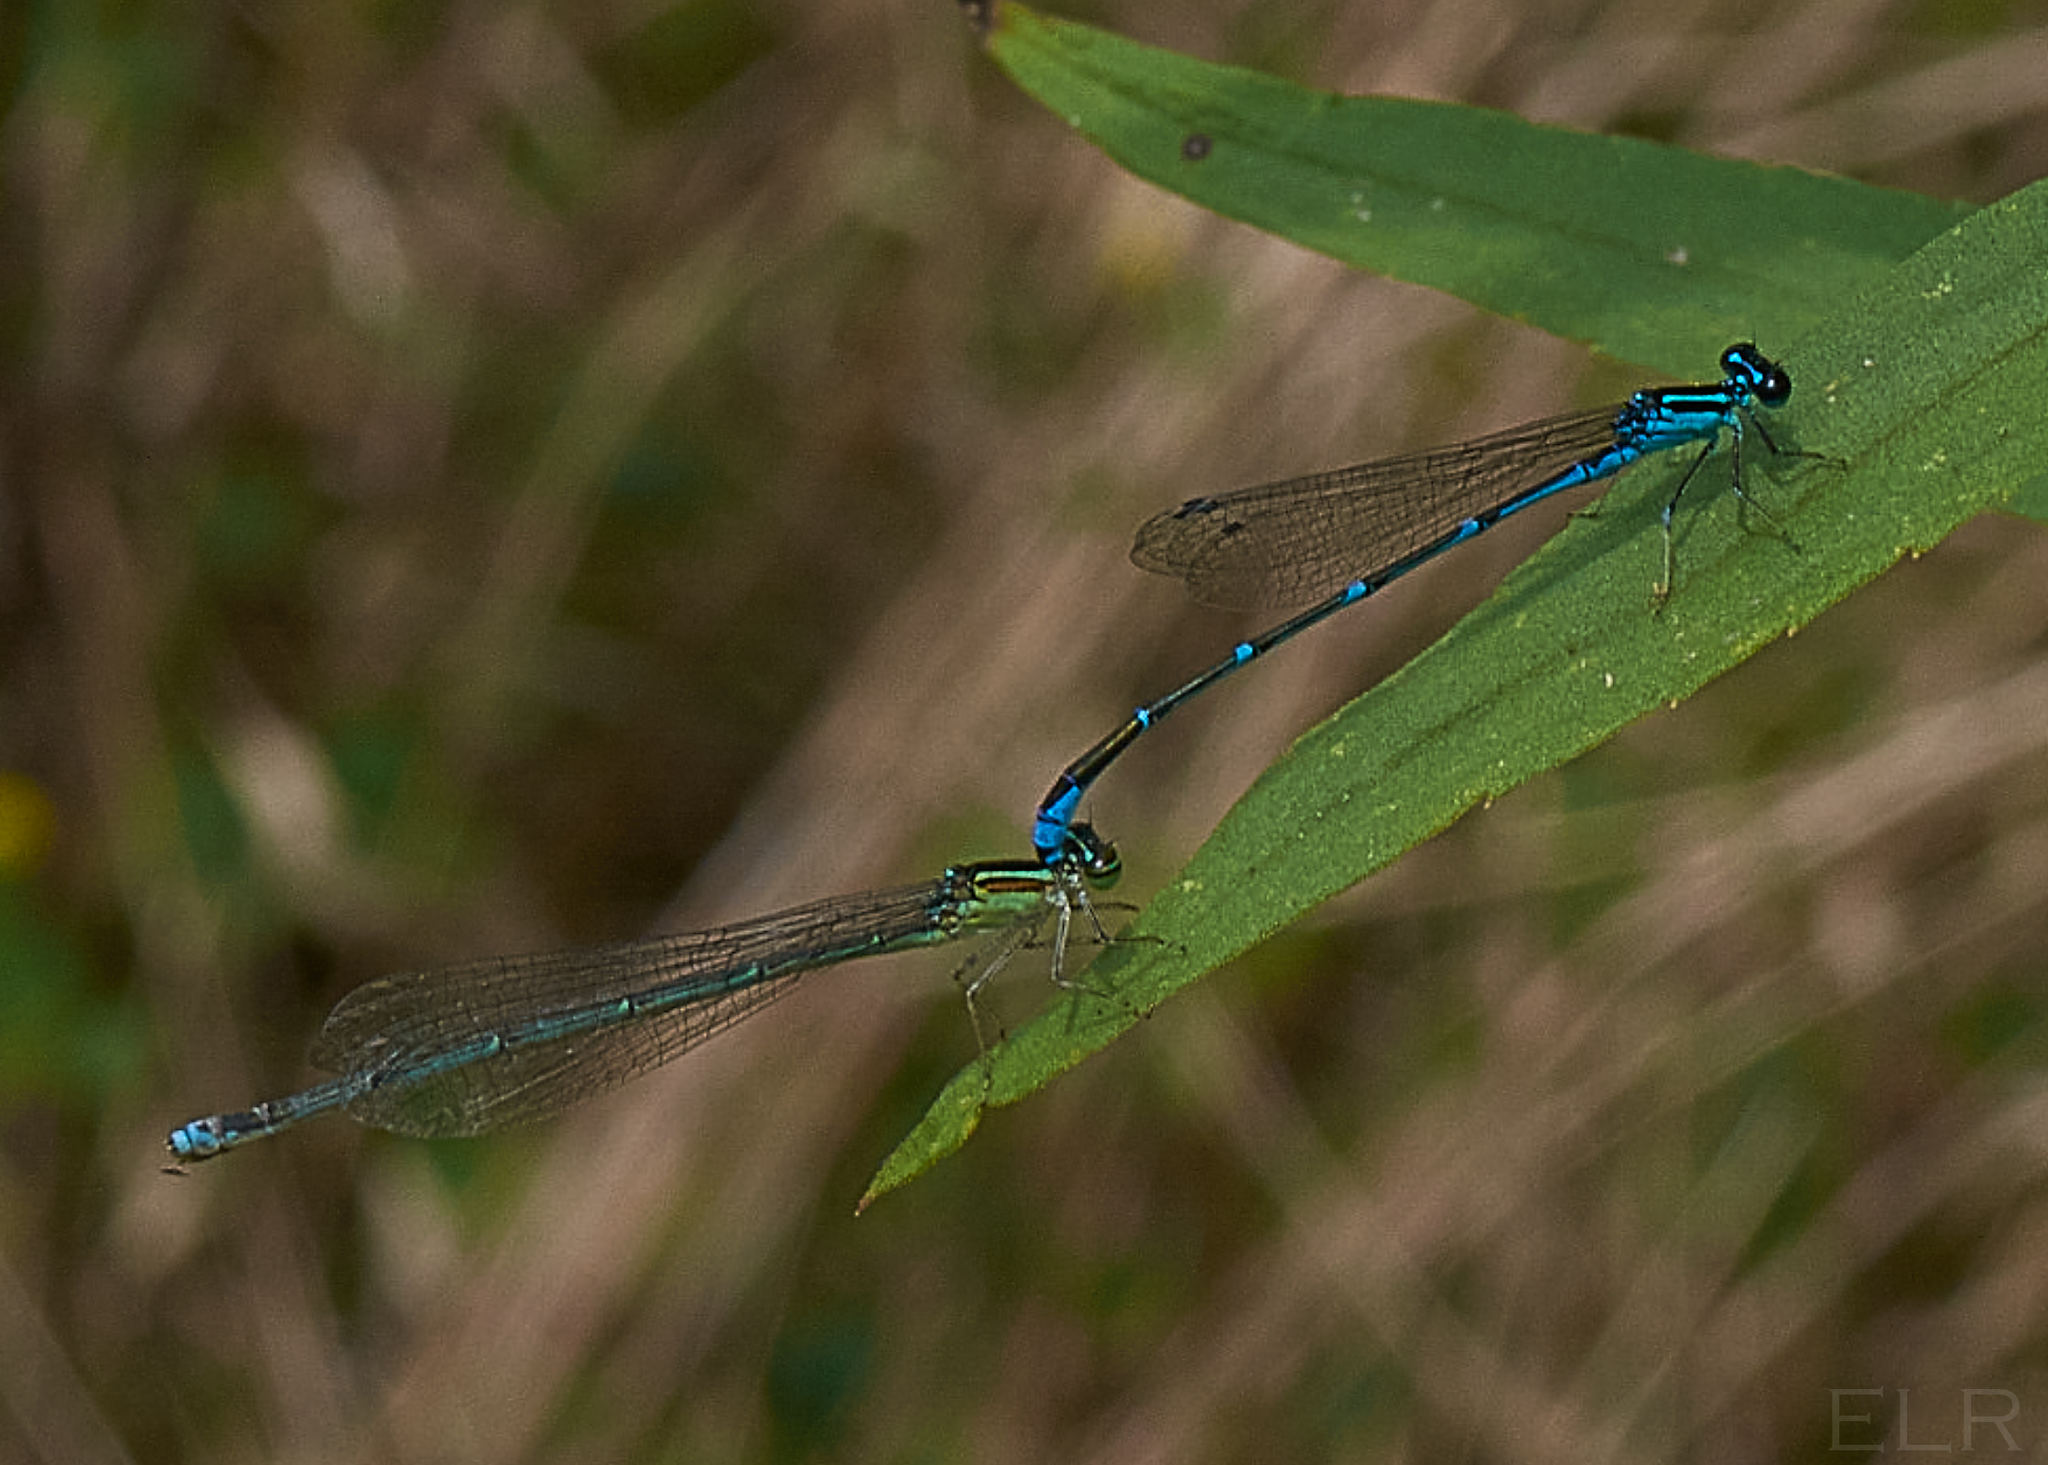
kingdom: Animalia
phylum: Arthropoda
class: Insecta
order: Odonata
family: Coenagrionidae
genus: Enallagma
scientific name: Enallagma exsulans
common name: Stream bluet
